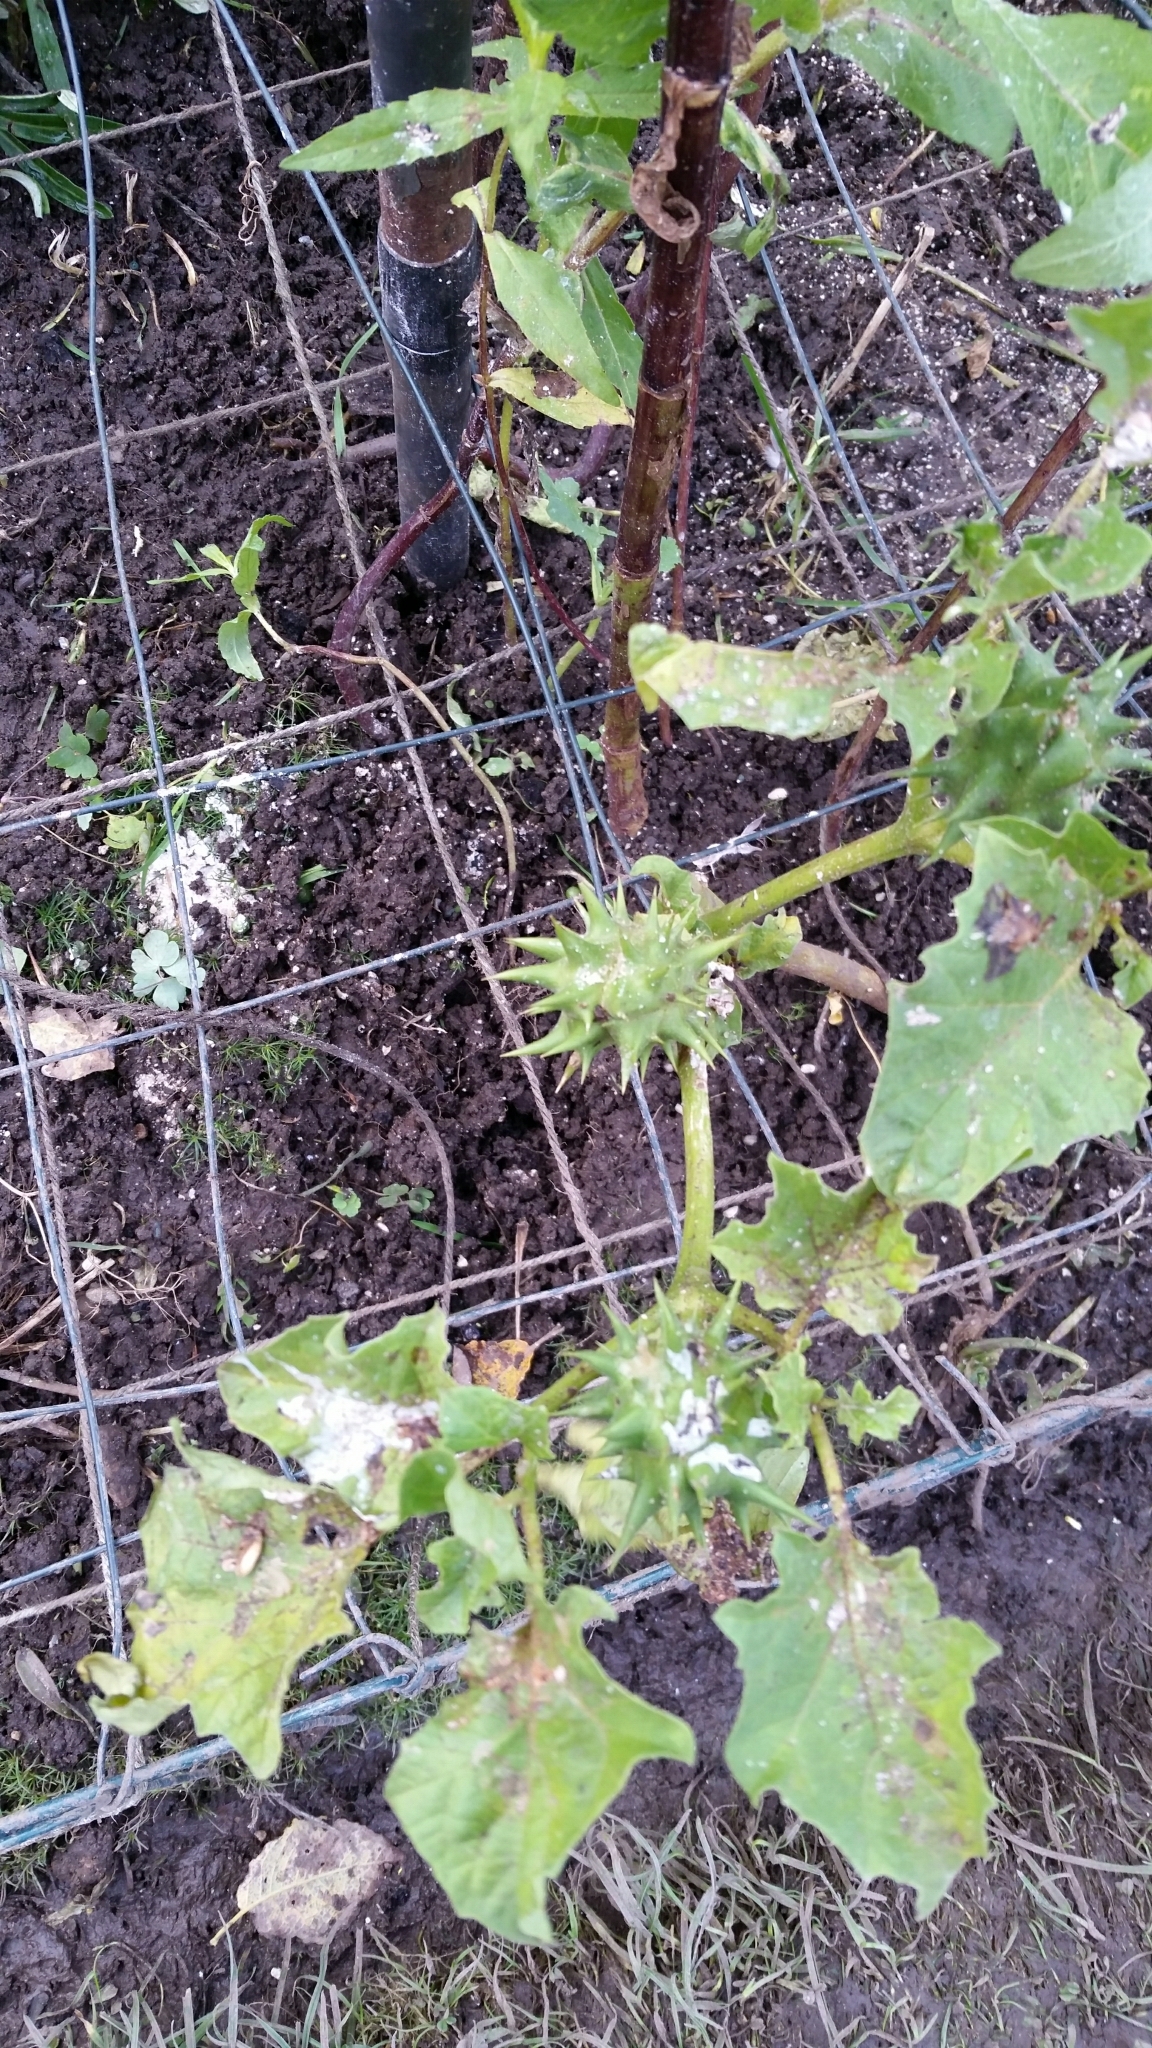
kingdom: Plantae
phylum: Tracheophyta
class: Magnoliopsida
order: Solanales
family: Solanaceae
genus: Datura
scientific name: Datura ferox
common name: Angel's-trumpets
